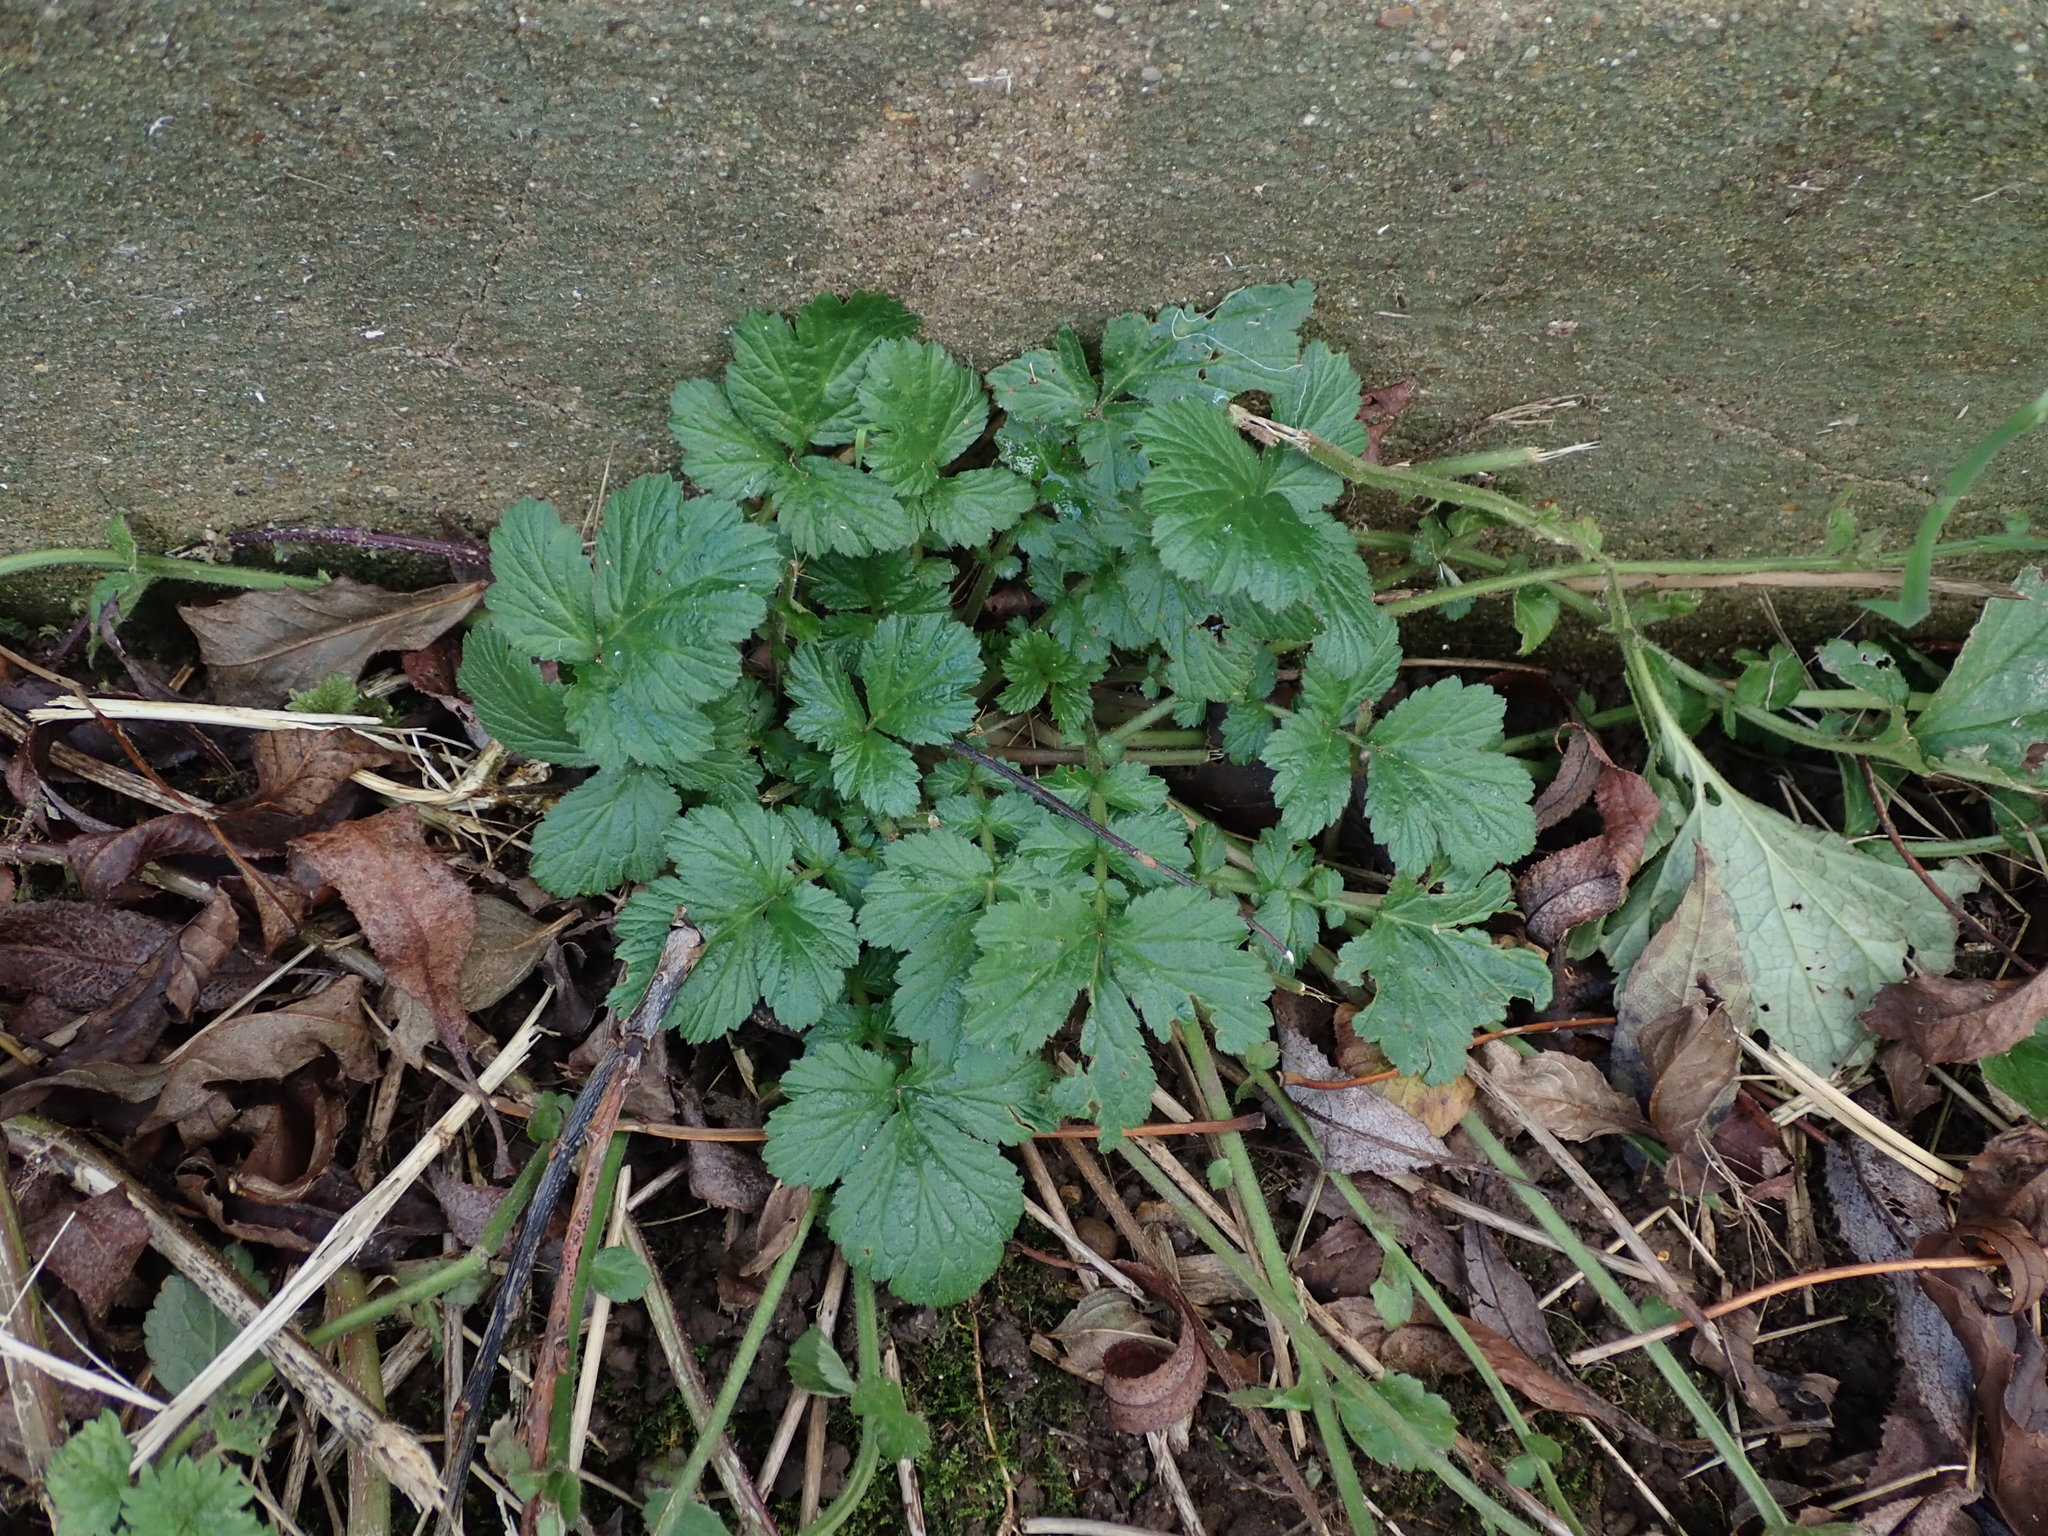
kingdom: Plantae
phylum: Tracheophyta
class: Magnoliopsida
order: Rosales
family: Rosaceae
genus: Geum
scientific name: Geum urbanum
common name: Wood avens
